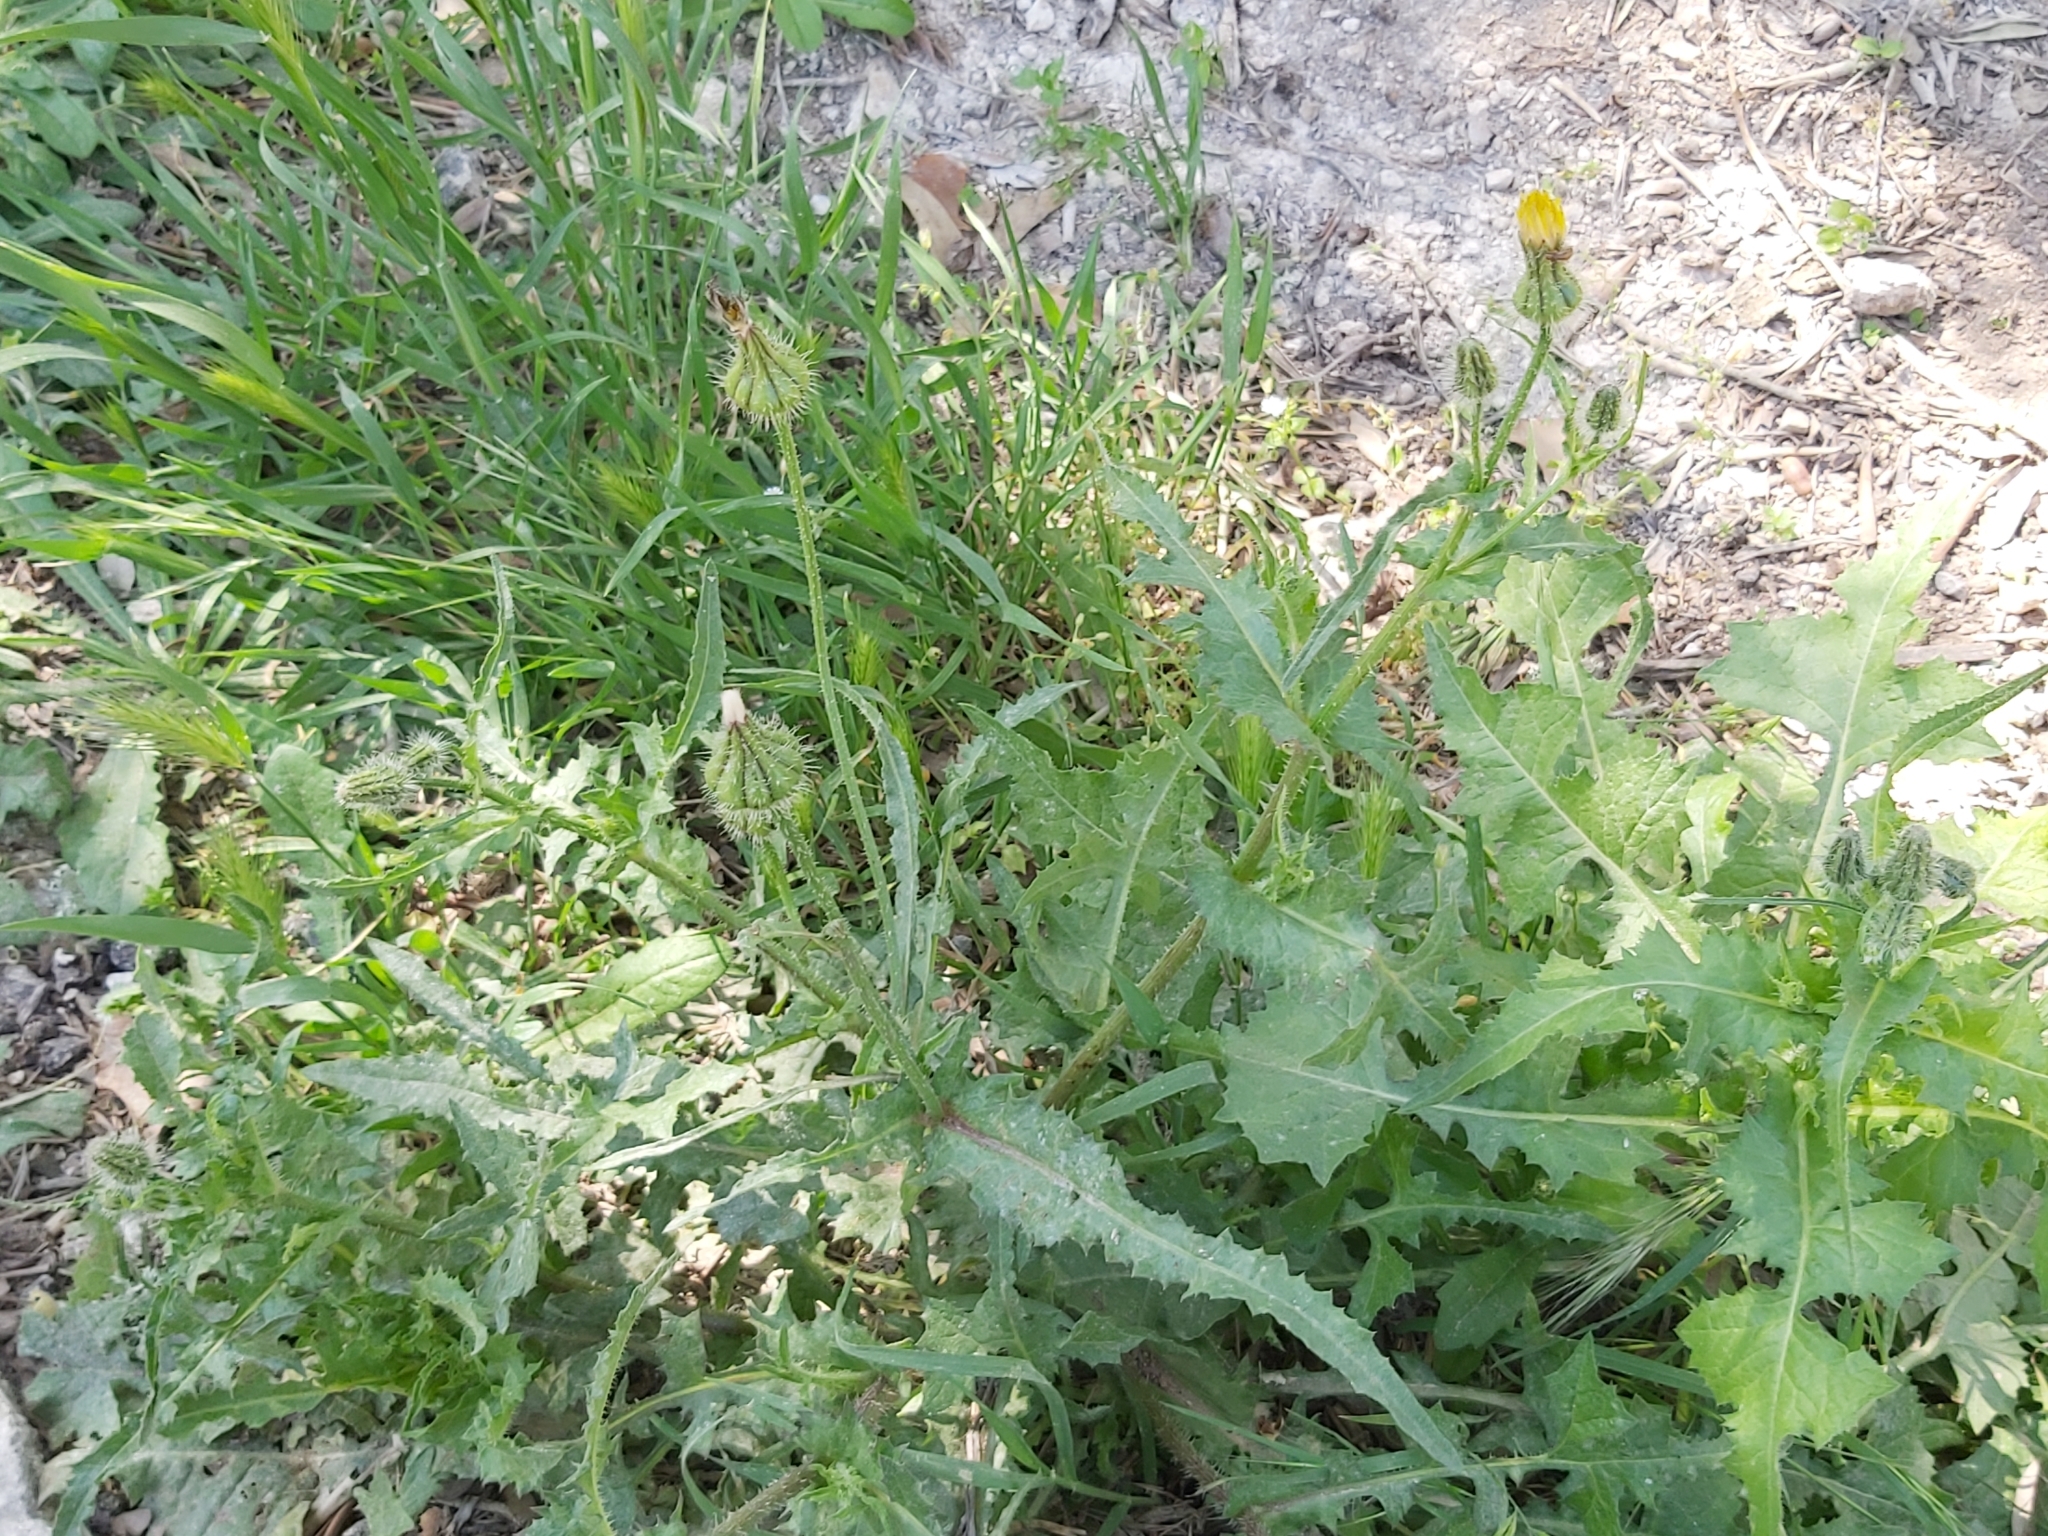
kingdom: Plantae
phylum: Tracheophyta
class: Magnoliopsida
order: Asterales
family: Asteraceae
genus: Urospermum
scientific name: Urospermum picroides
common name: False hawkbit
